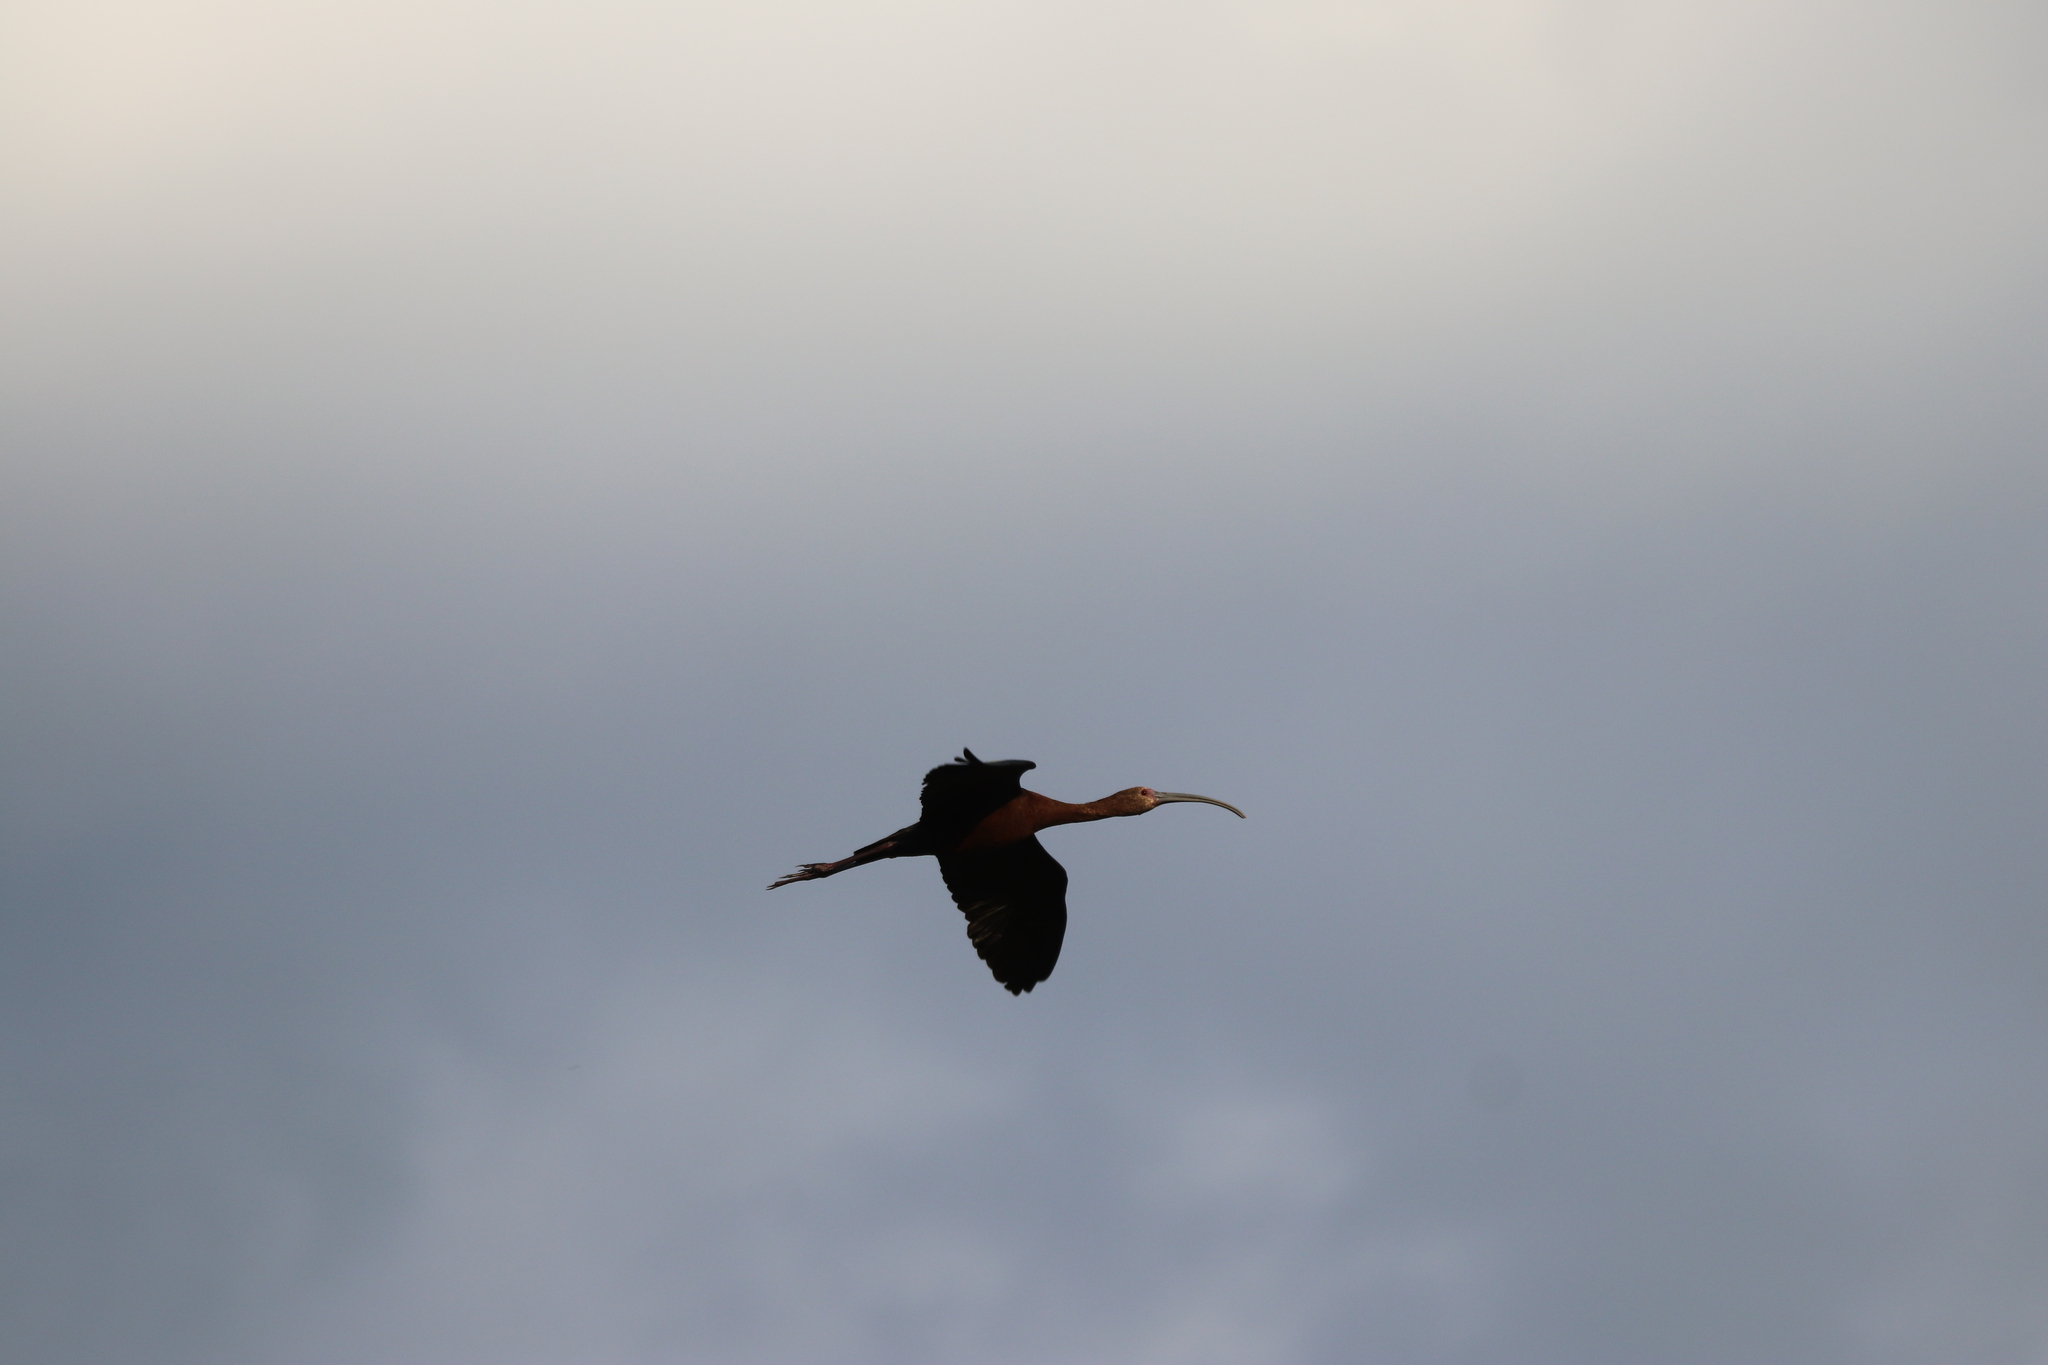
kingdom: Animalia
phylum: Chordata
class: Aves
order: Pelecaniformes
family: Threskiornithidae
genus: Plegadis
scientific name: Plegadis chihi
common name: White-faced ibis
